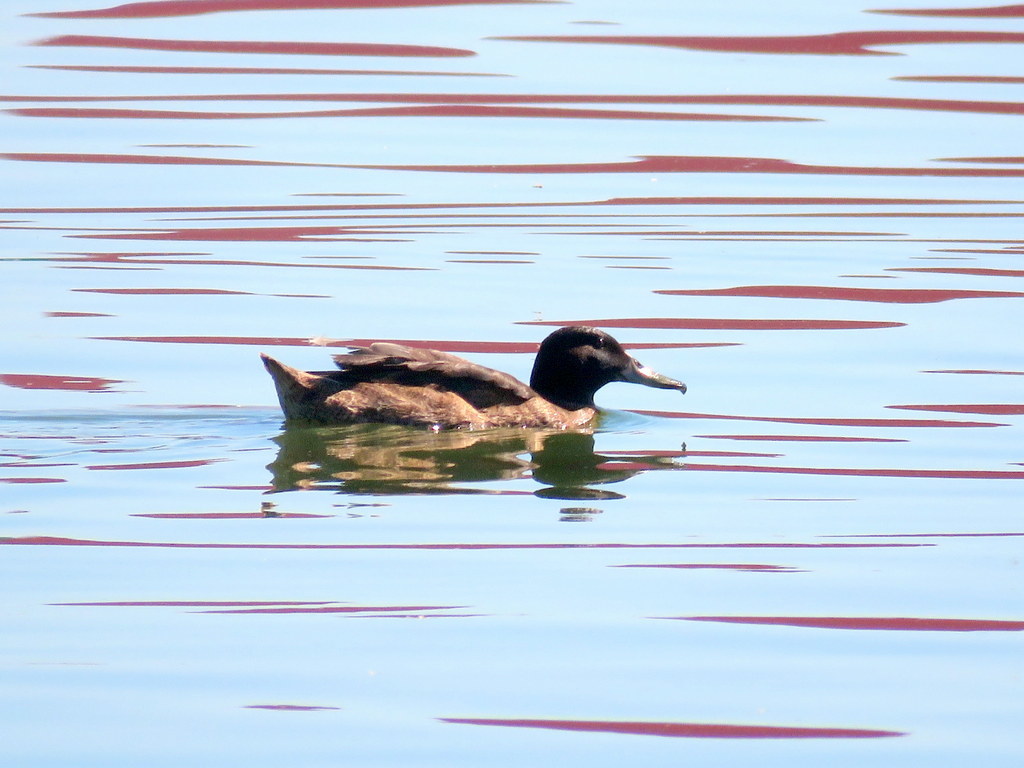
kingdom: Animalia
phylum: Chordata
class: Aves
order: Anseriformes
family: Anatidae
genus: Heteronetta
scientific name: Heteronetta atricapilla
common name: Black-headed duck
